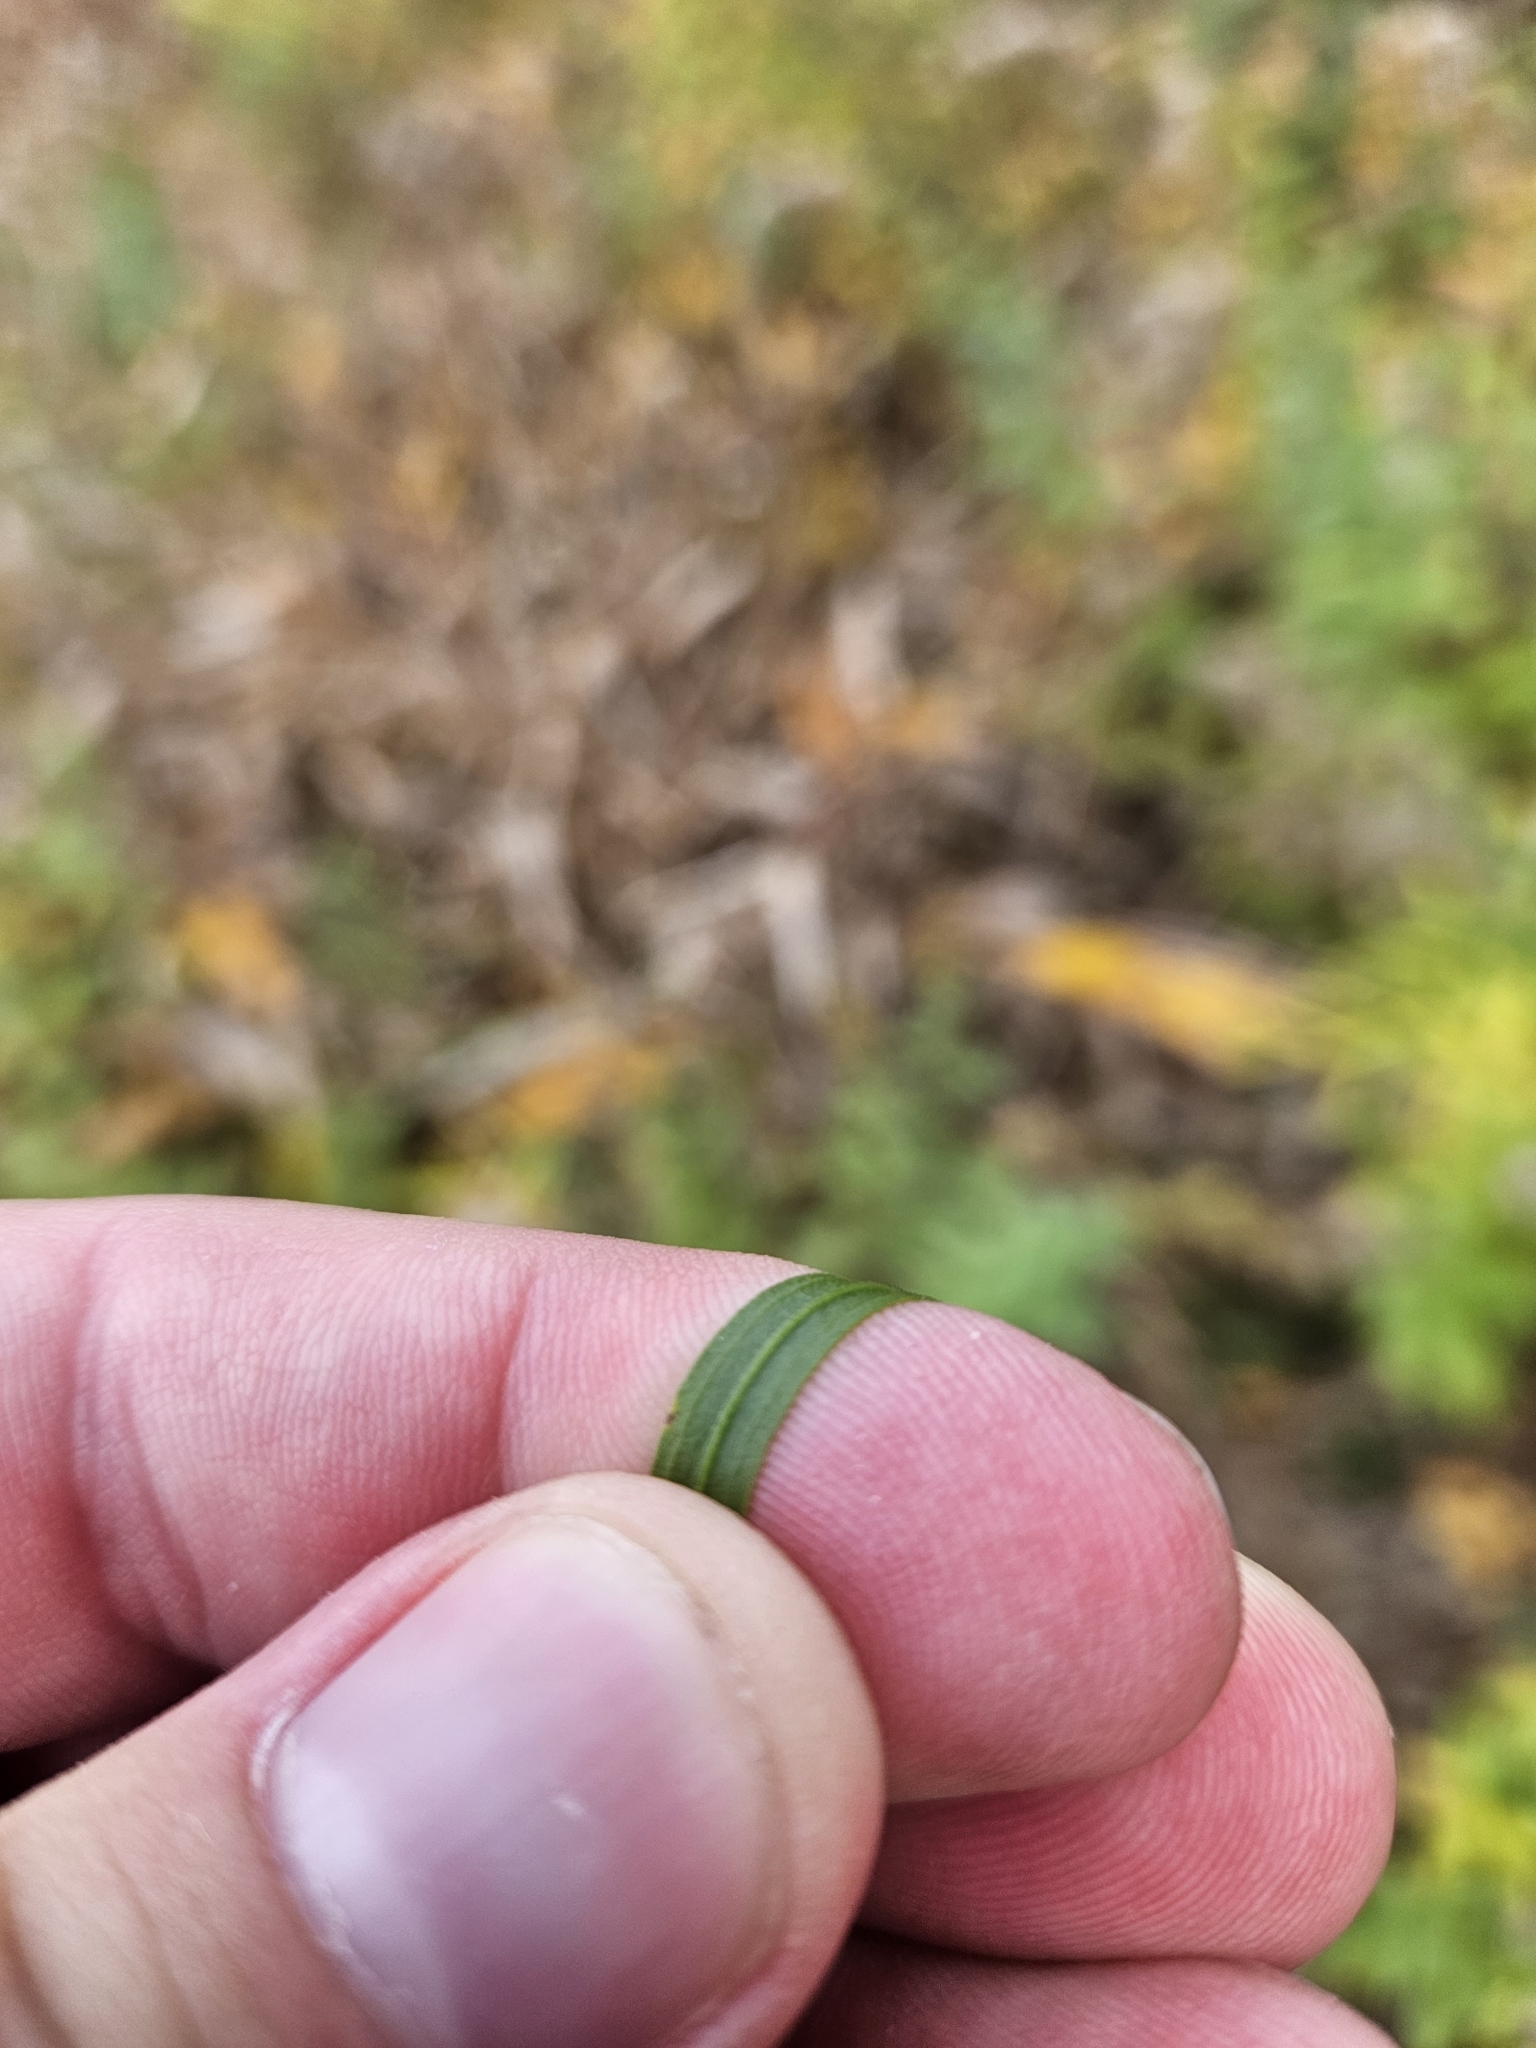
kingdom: Plantae
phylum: Tracheophyta
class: Magnoliopsida
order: Asterales
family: Asteraceae
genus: Euthamia
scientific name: Euthamia graminifolia
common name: Common goldentop
